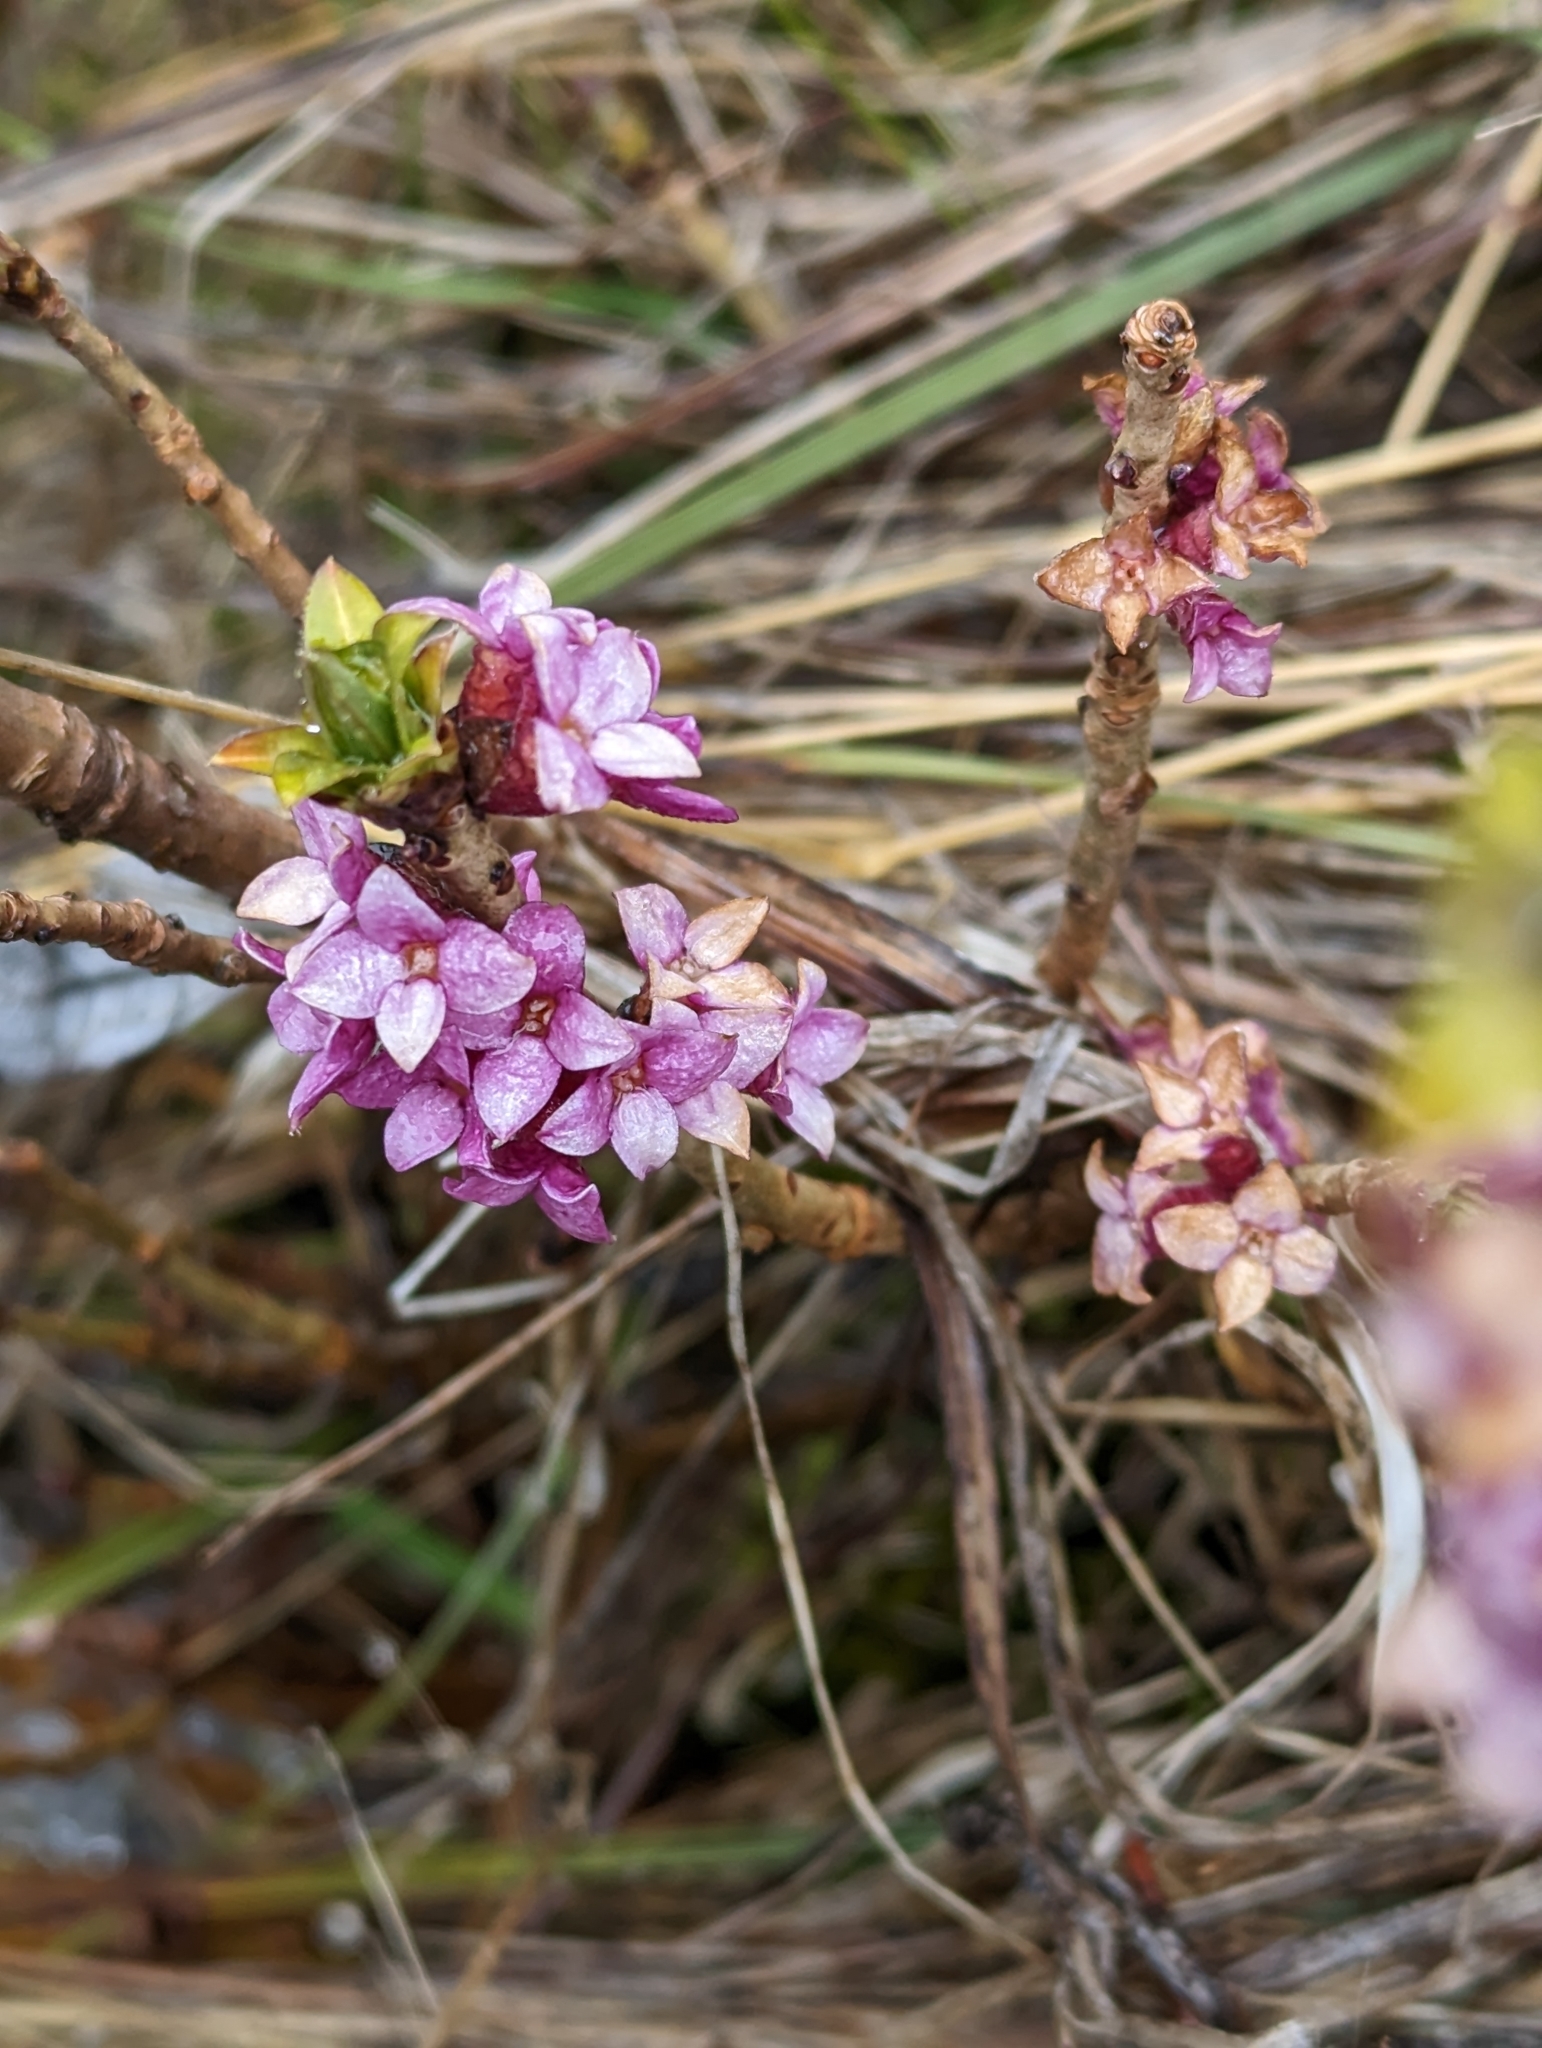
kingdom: Plantae
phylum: Tracheophyta
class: Magnoliopsida
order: Malvales
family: Thymelaeaceae
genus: Daphne
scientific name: Daphne mezereum
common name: Mezereon
